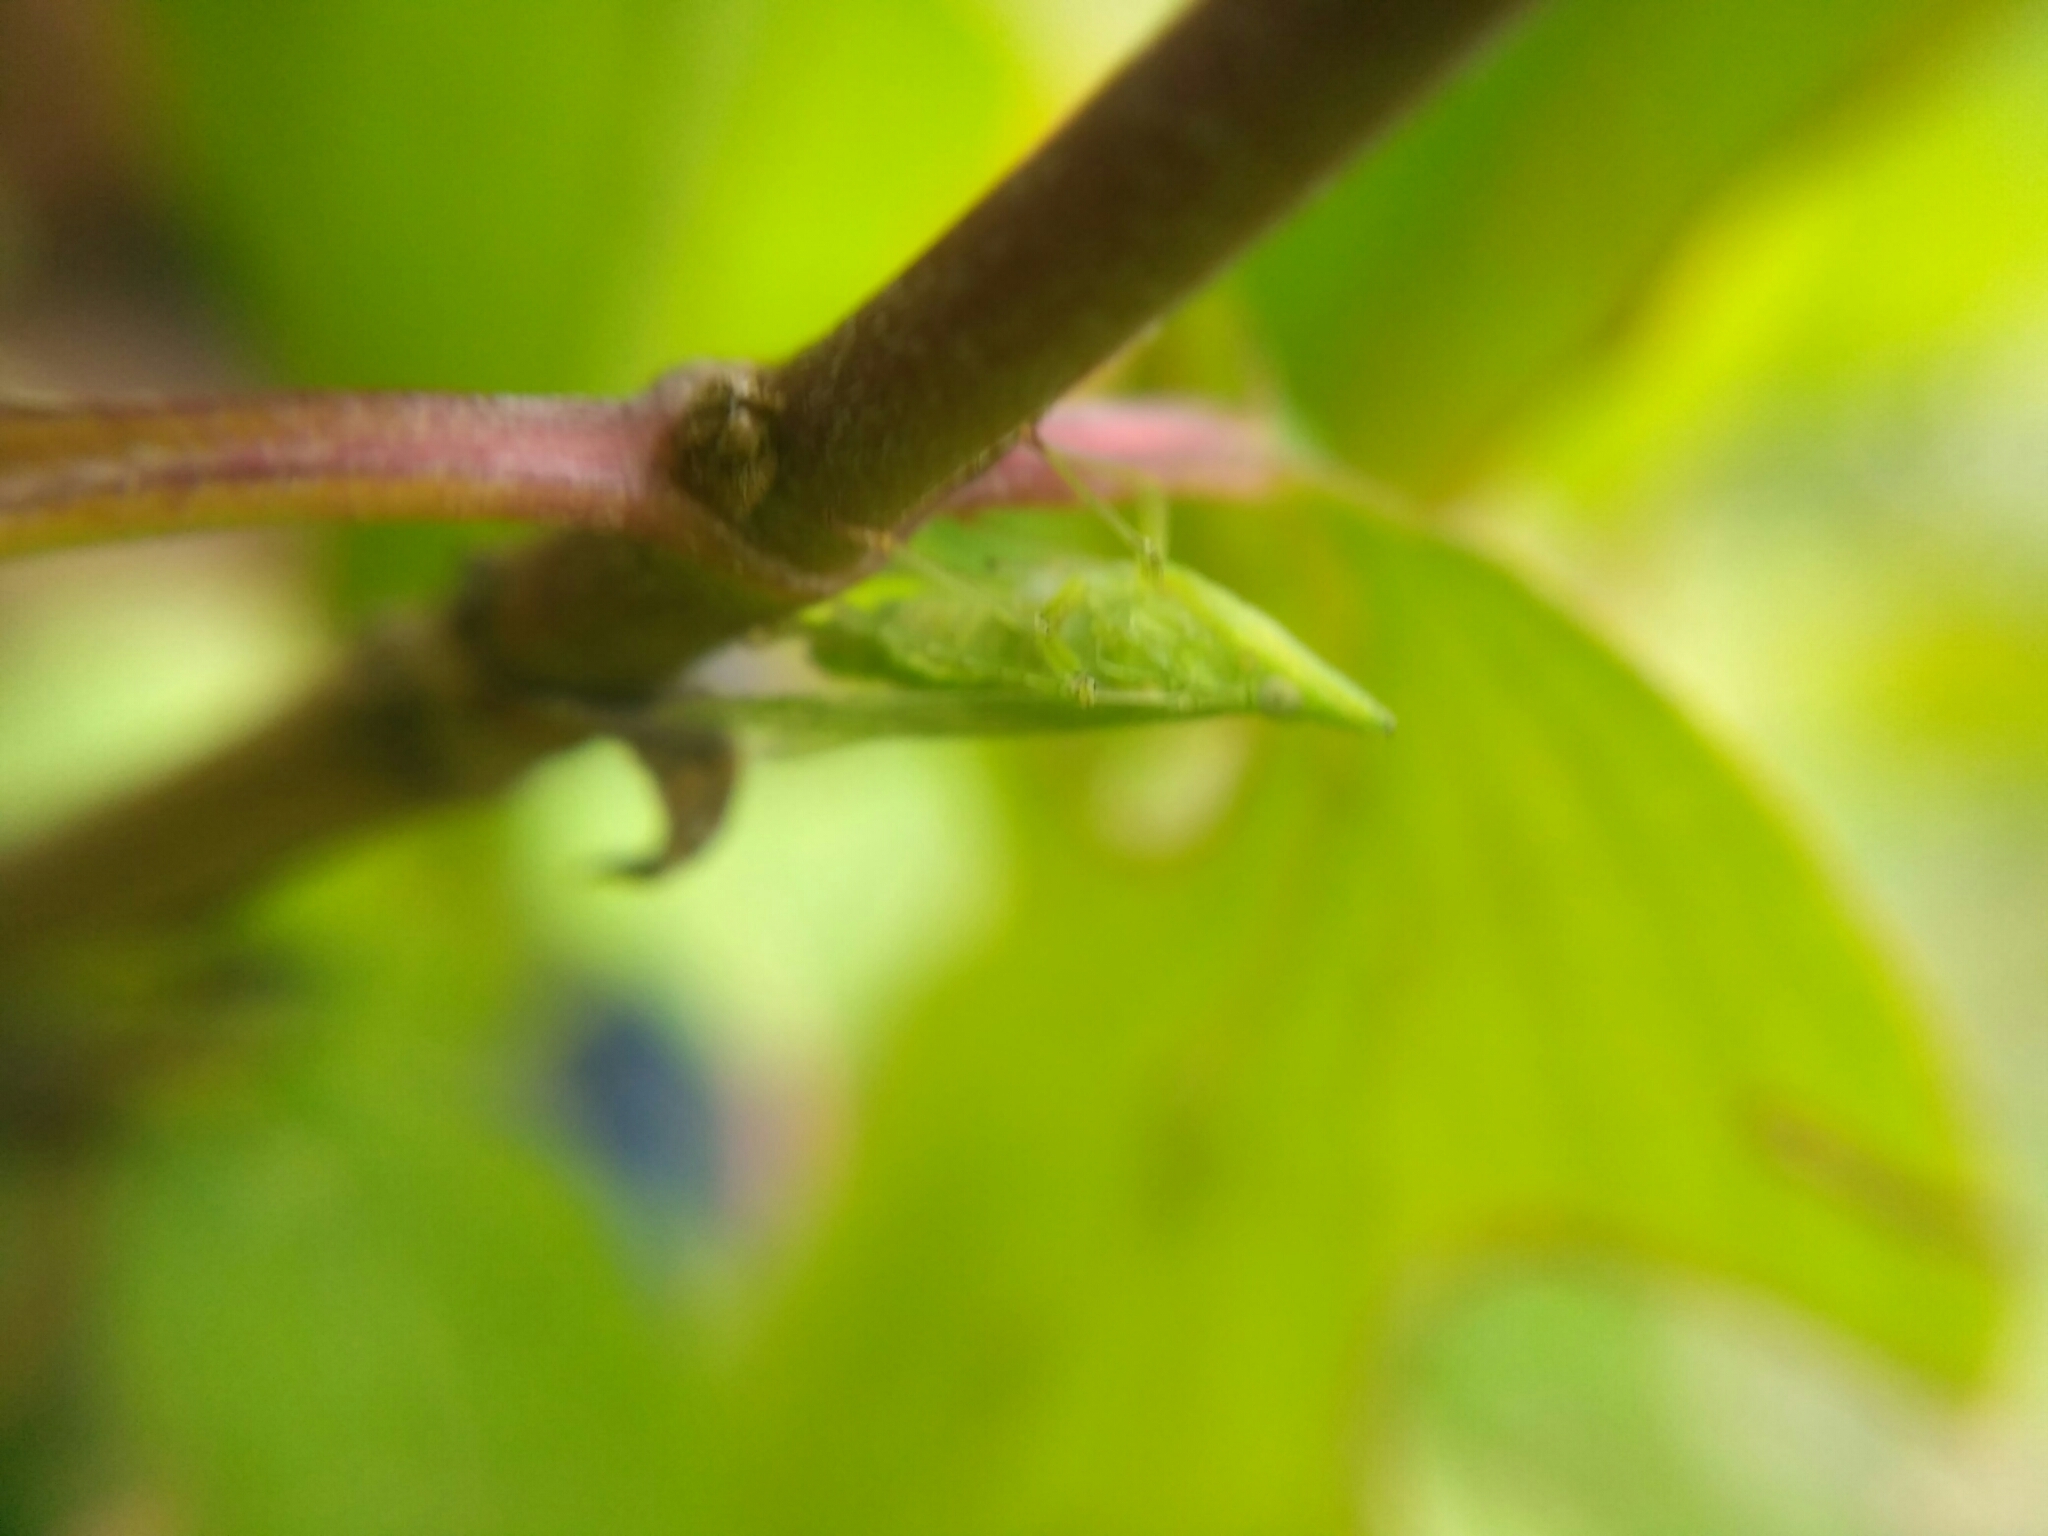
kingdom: Animalia
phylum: Arthropoda
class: Insecta
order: Hemiptera
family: Dictyopharidae
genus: Dictyophara
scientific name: Dictyophara europaea
